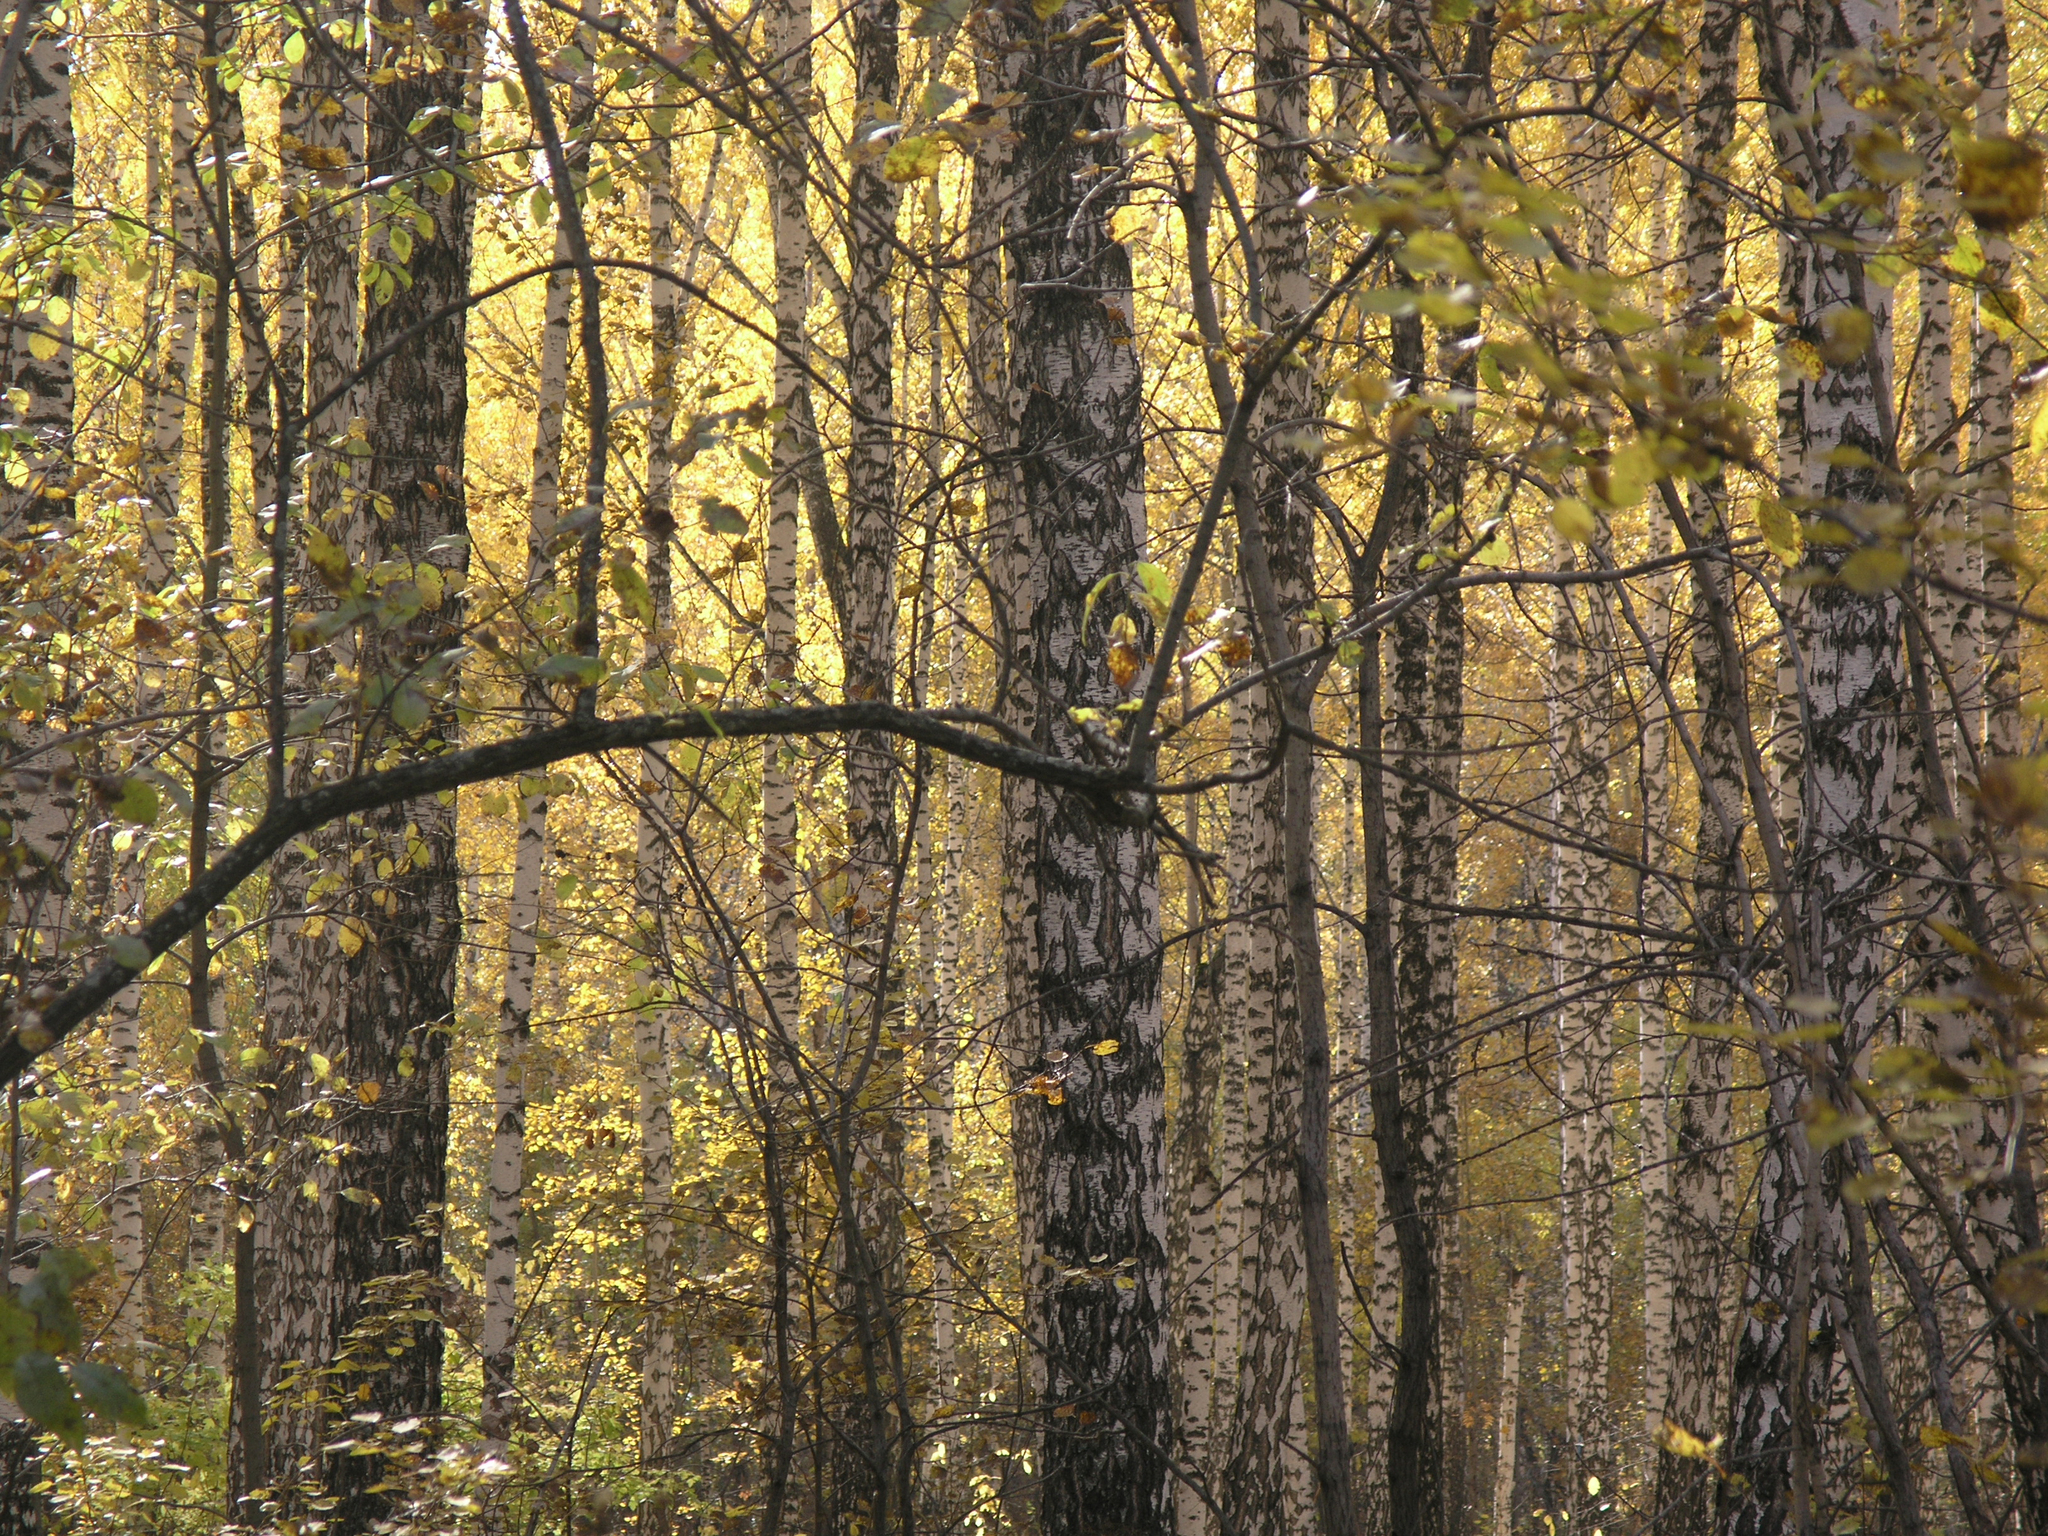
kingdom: Plantae
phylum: Tracheophyta
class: Magnoliopsida
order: Fagales
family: Betulaceae
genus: Betula
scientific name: Betula pendula
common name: Silver birch
